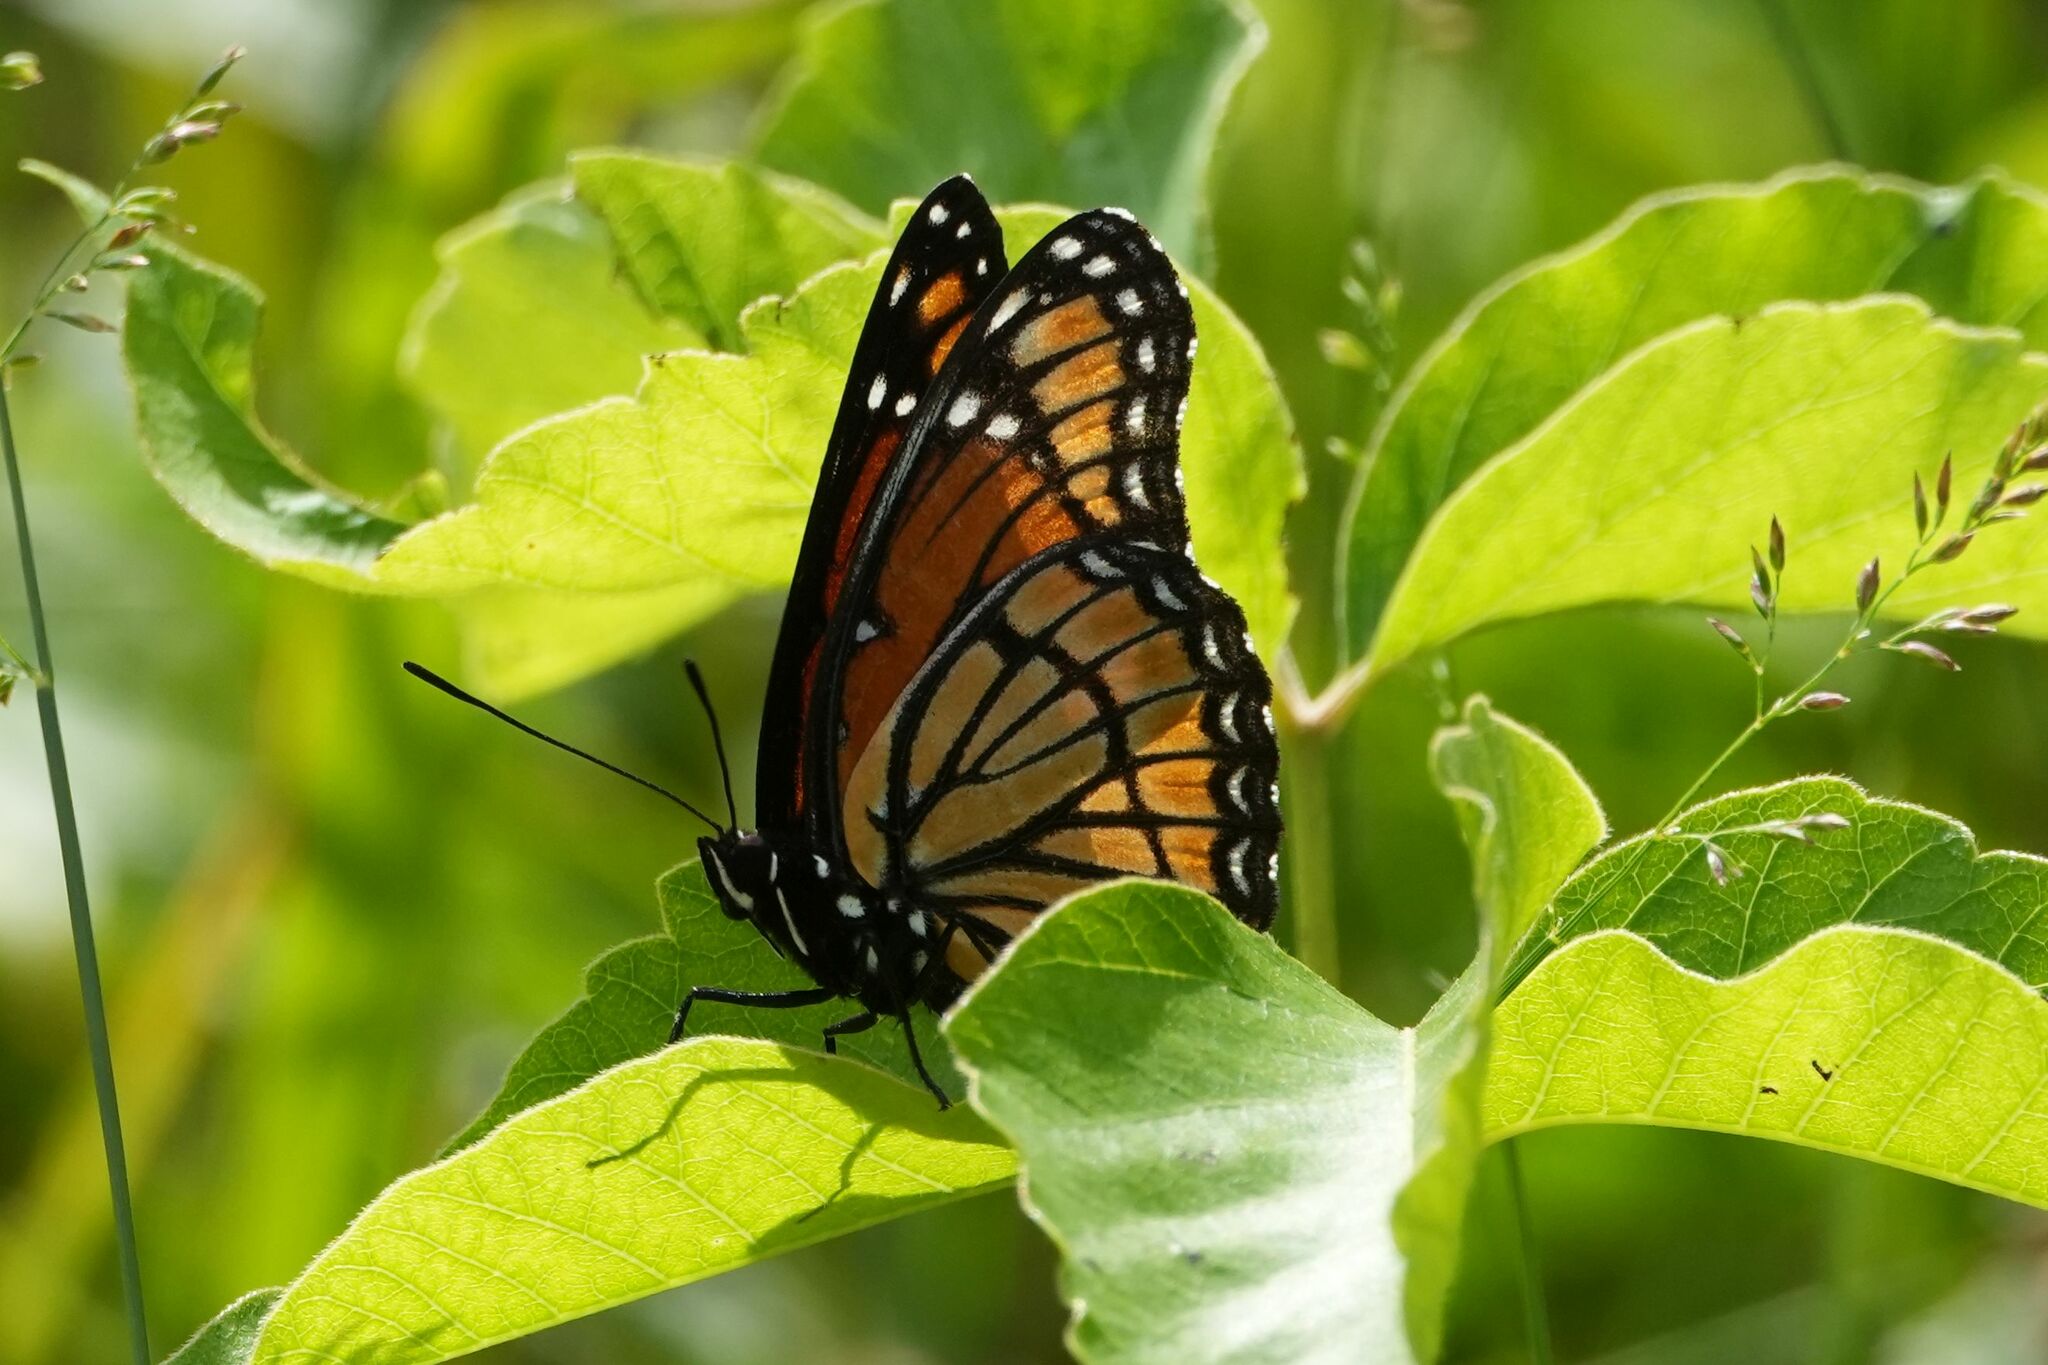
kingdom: Animalia
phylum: Arthropoda
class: Insecta
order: Lepidoptera
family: Nymphalidae
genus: Limenitis
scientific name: Limenitis archippus
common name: Viceroy
